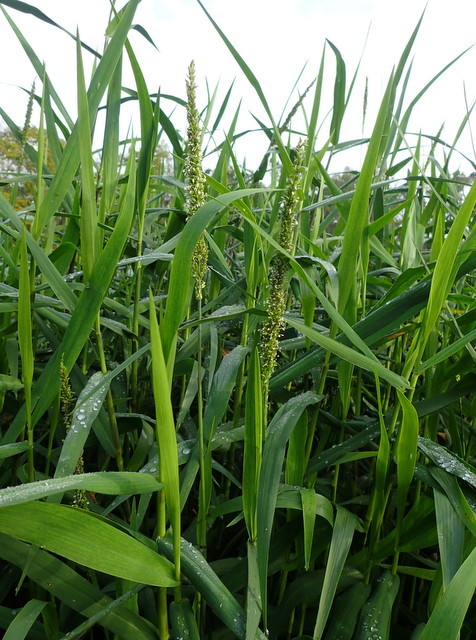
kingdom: Plantae
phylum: Tracheophyta
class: Liliopsida
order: Poales
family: Poaceae
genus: Sacciolepis
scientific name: Sacciolepis striata
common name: American cupscale
